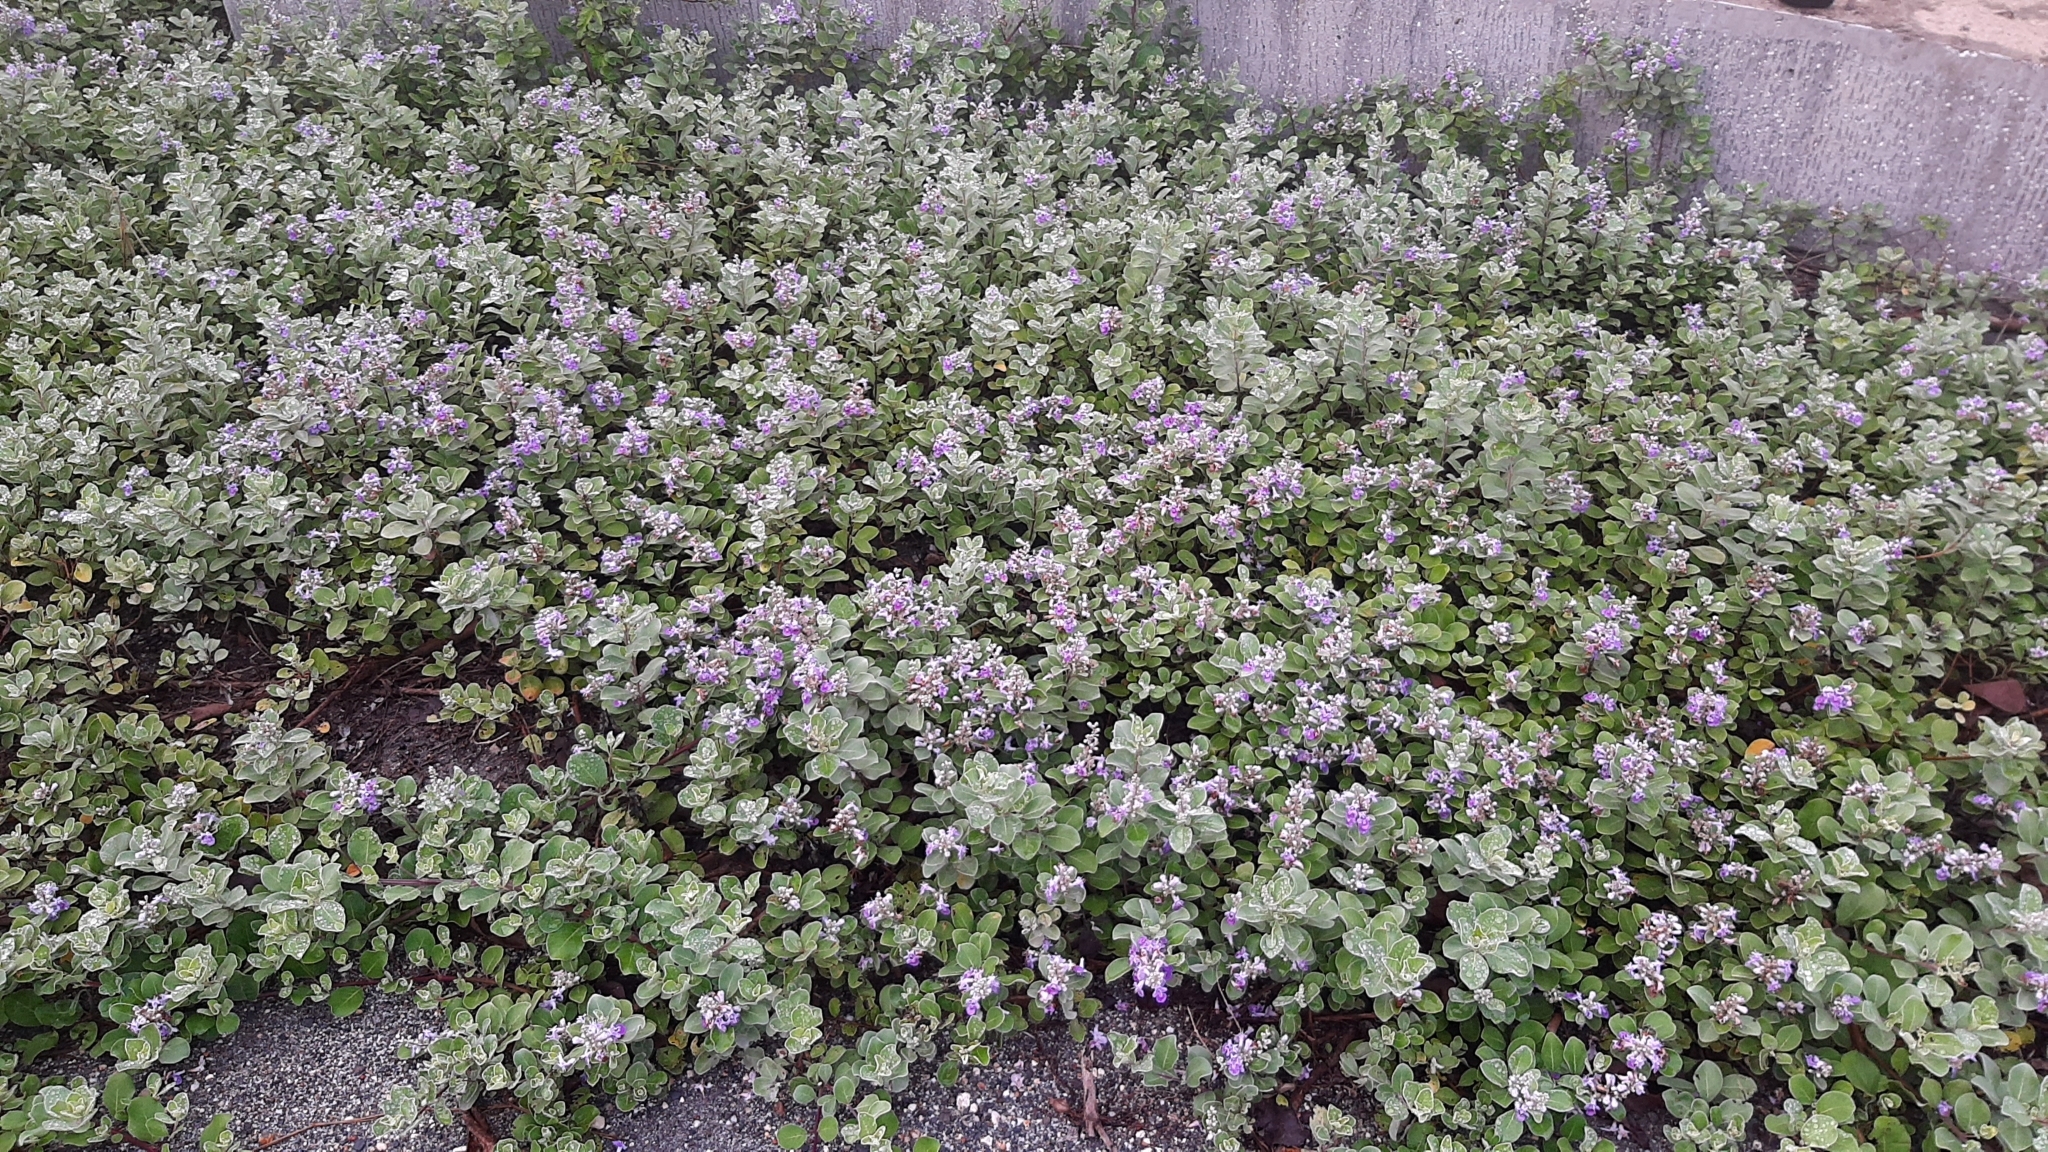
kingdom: Plantae
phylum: Tracheophyta
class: Magnoliopsida
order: Lamiales
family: Lamiaceae
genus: Vitex
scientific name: Vitex rotundifolia
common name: Beach vitex
